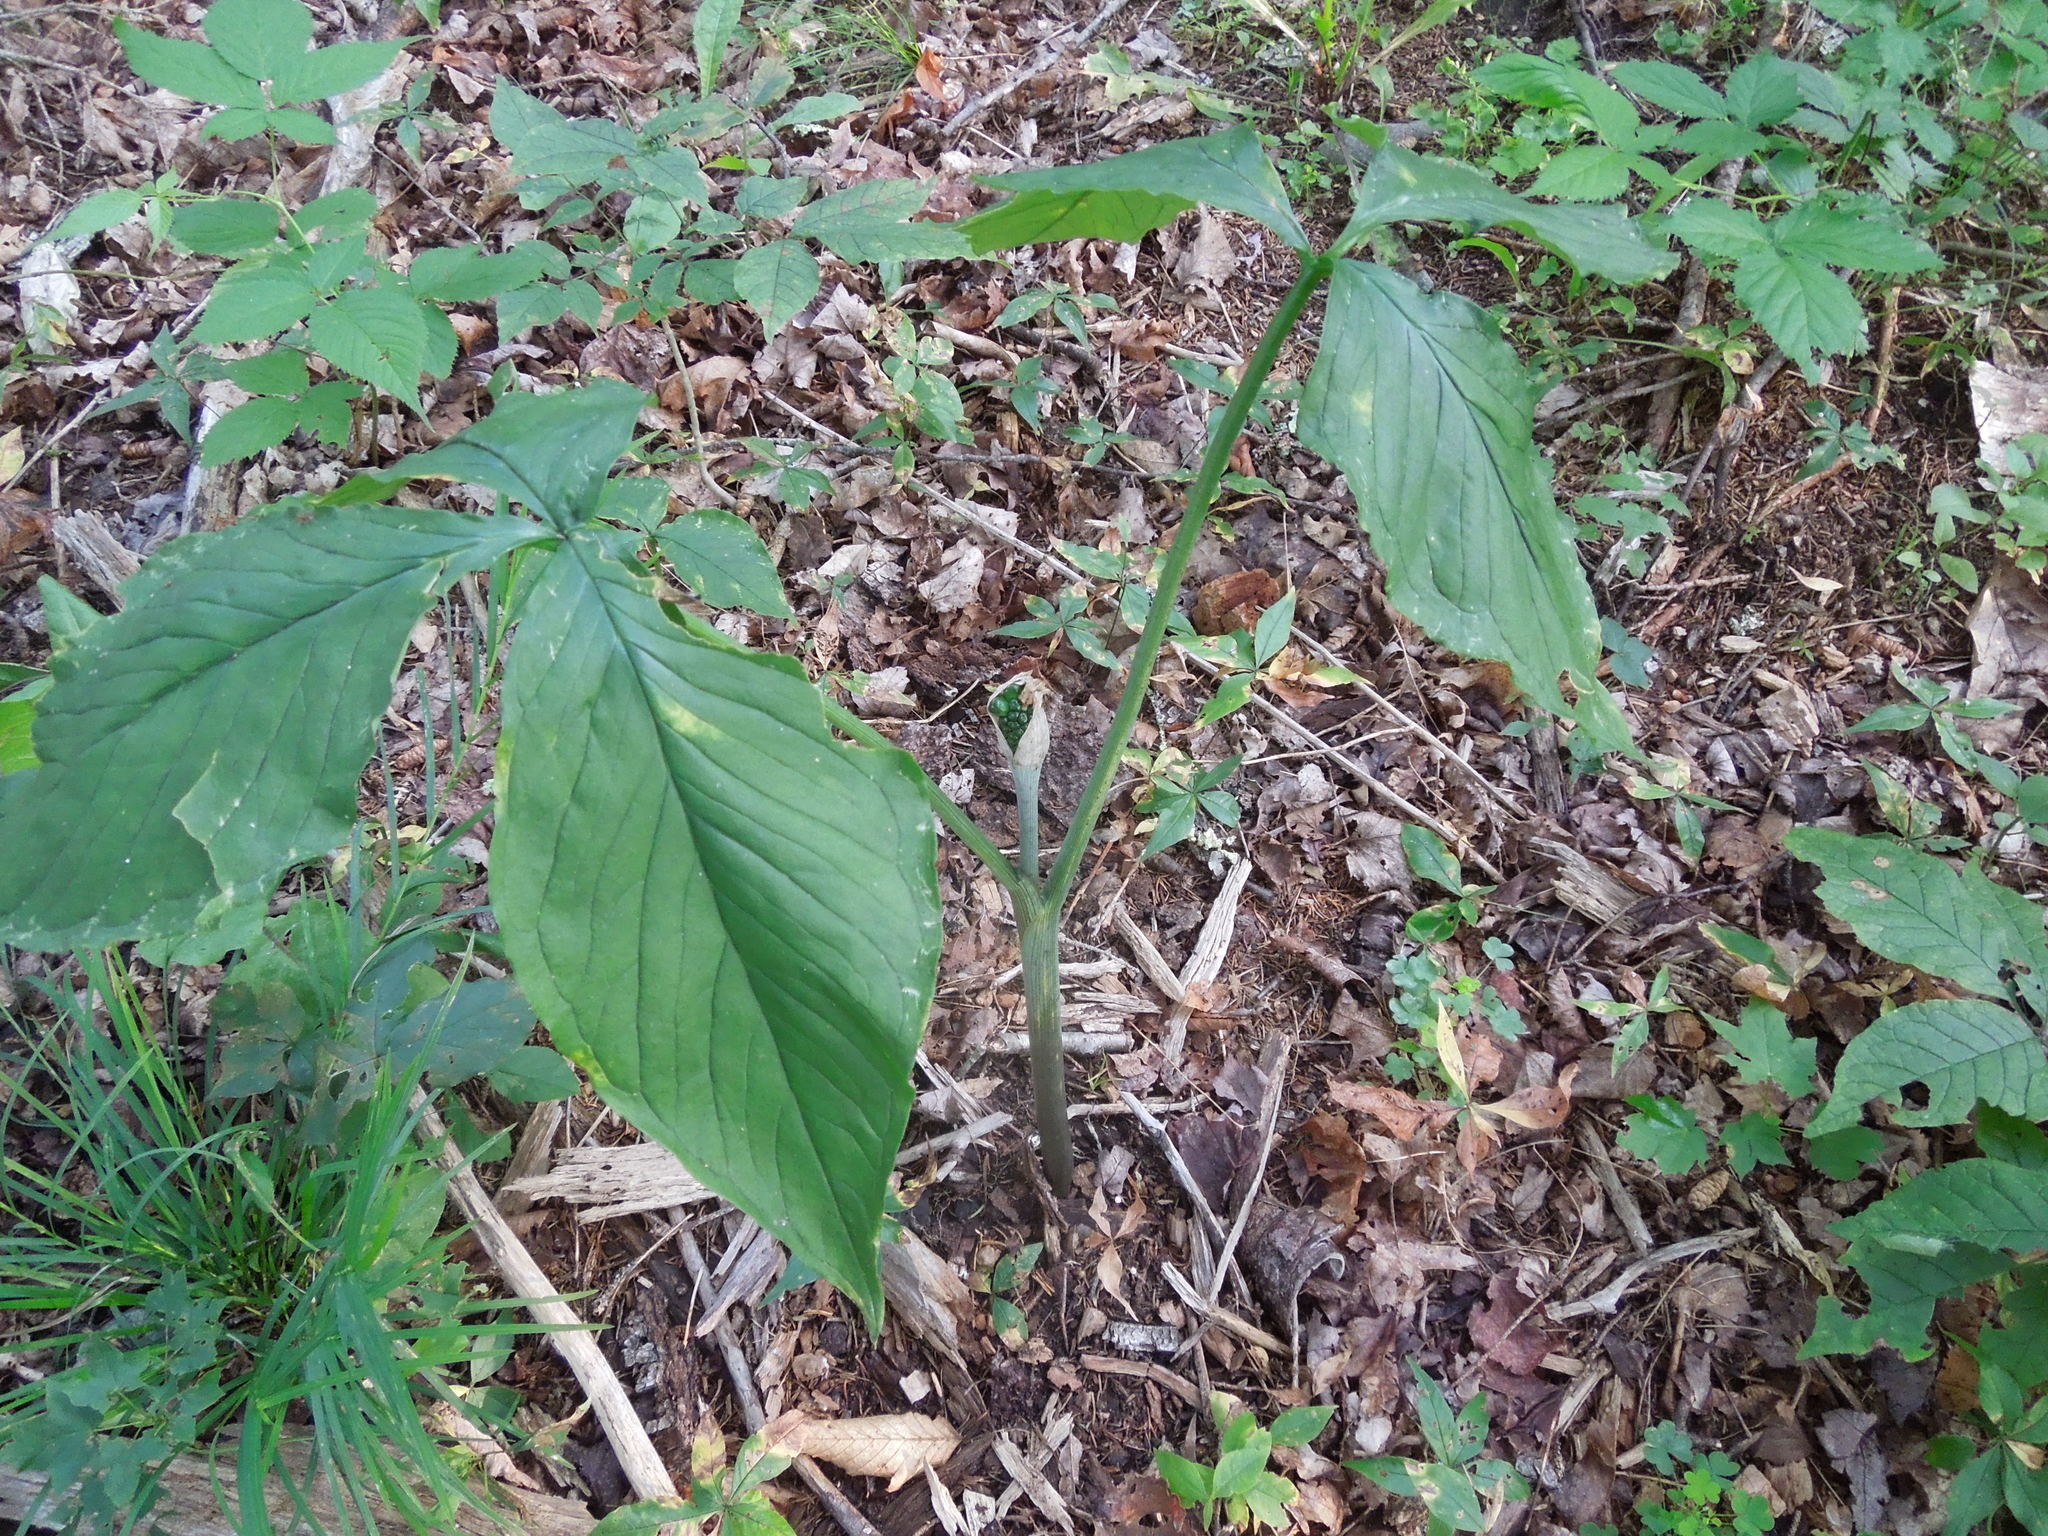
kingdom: Plantae
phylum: Tracheophyta
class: Liliopsida
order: Alismatales
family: Araceae
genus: Arisaema
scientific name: Arisaema triphyllum
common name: Jack-in-the-pulpit
